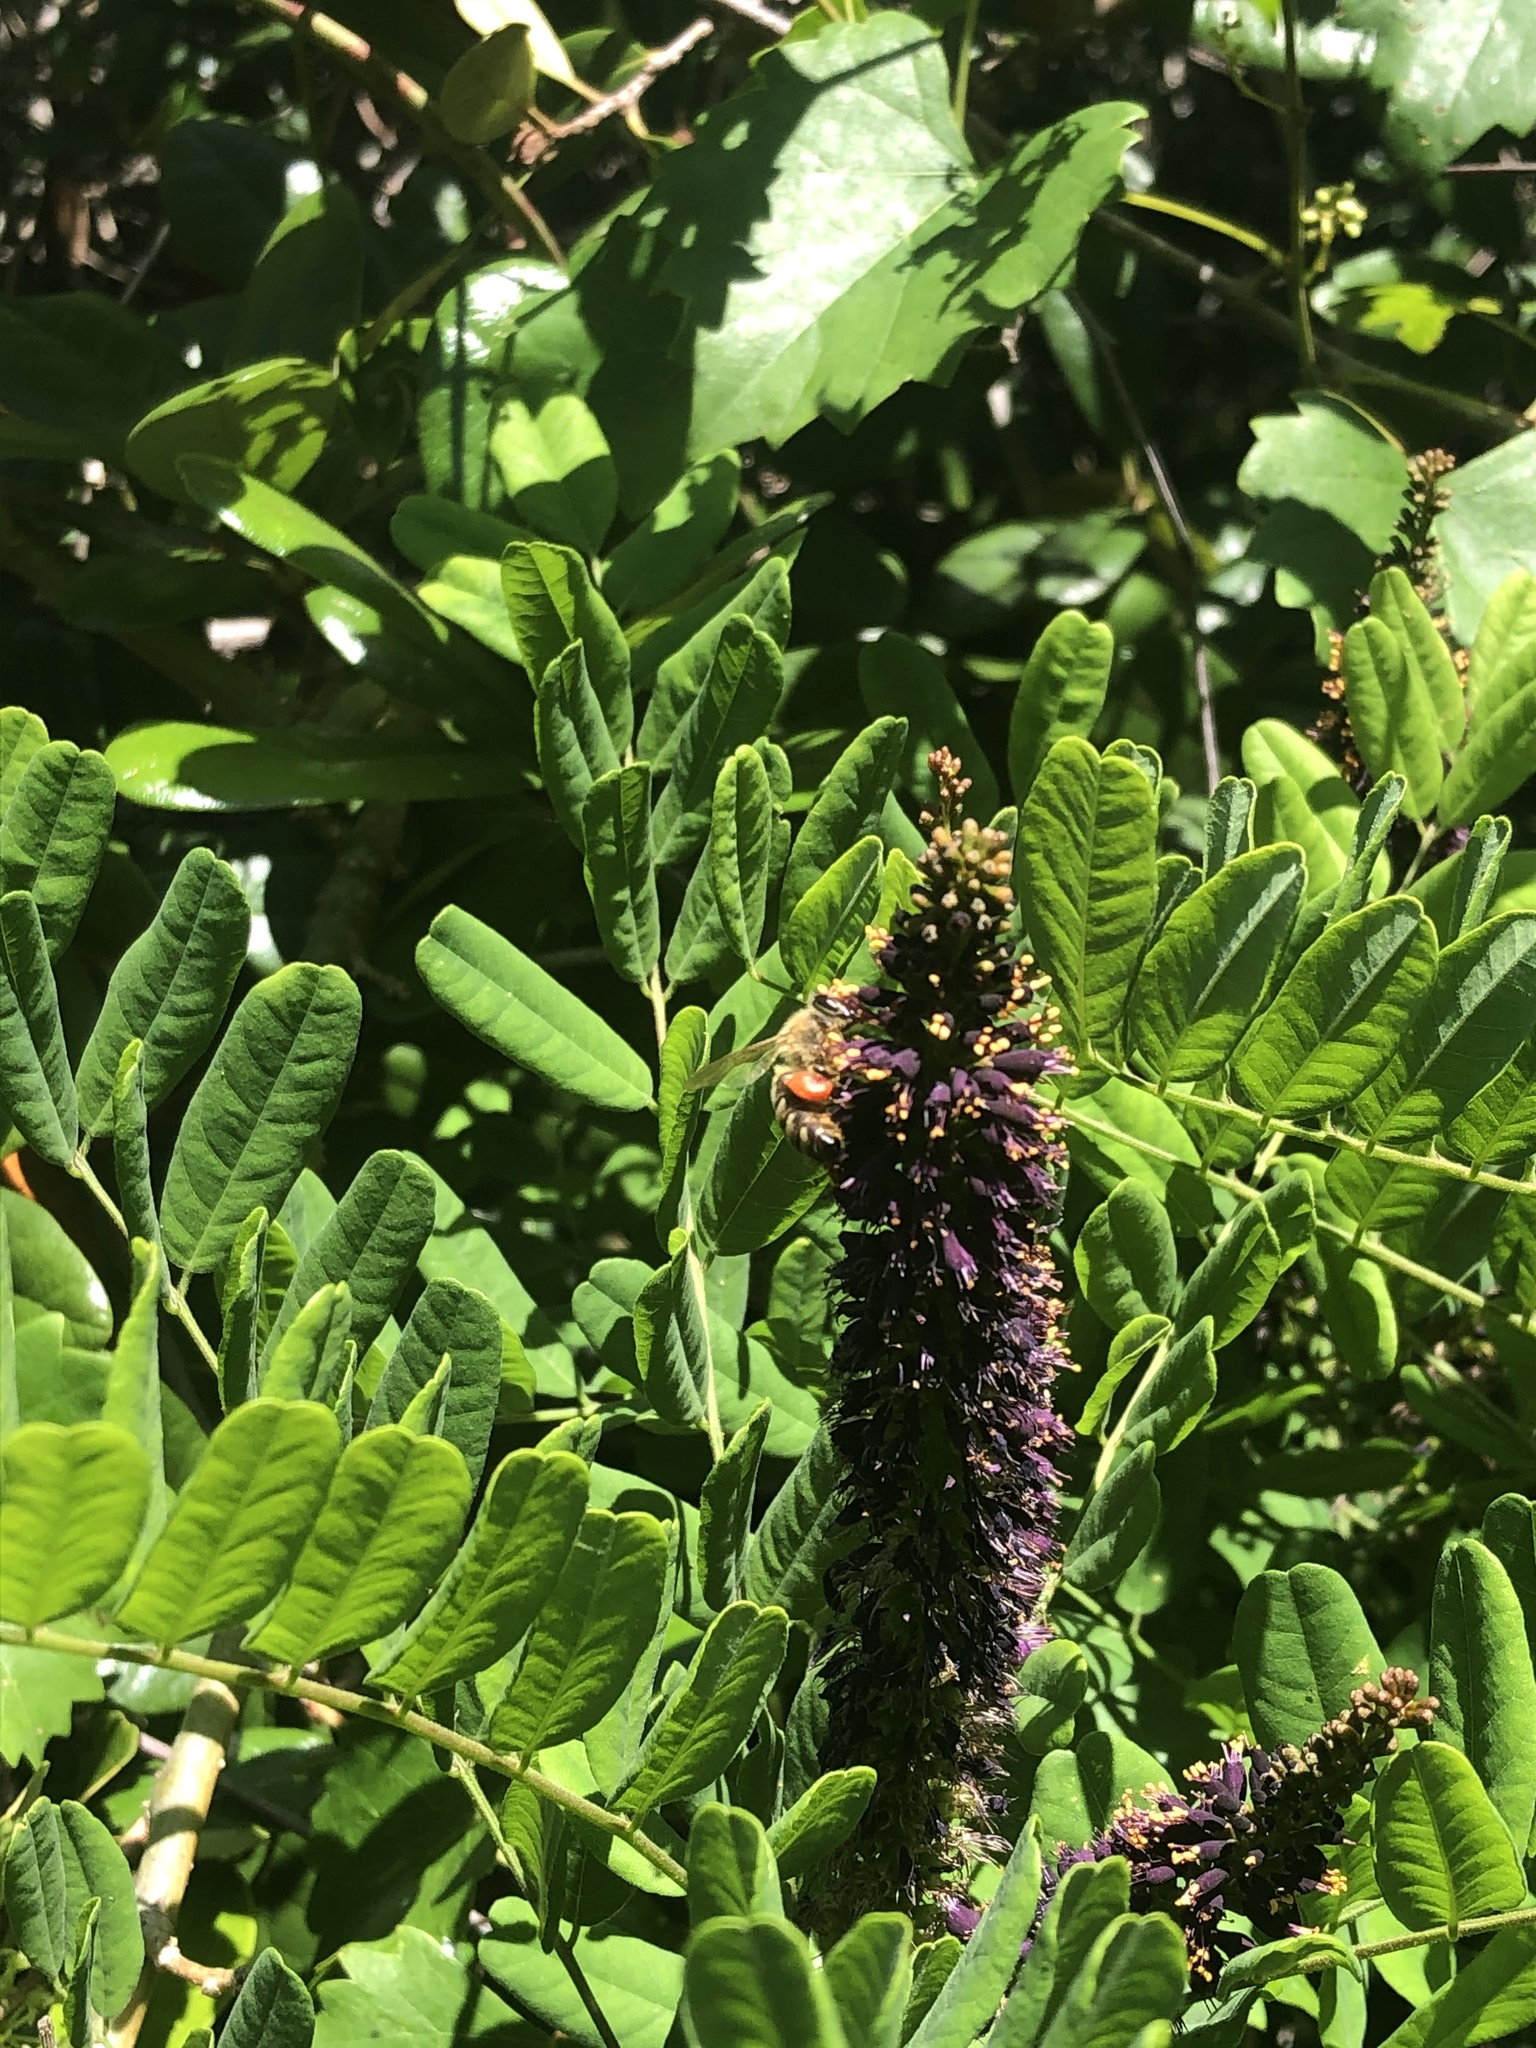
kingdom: Plantae
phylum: Tracheophyta
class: Magnoliopsida
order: Fabales
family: Fabaceae
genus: Amorpha
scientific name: Amorpha fruticosa
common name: False indigo
